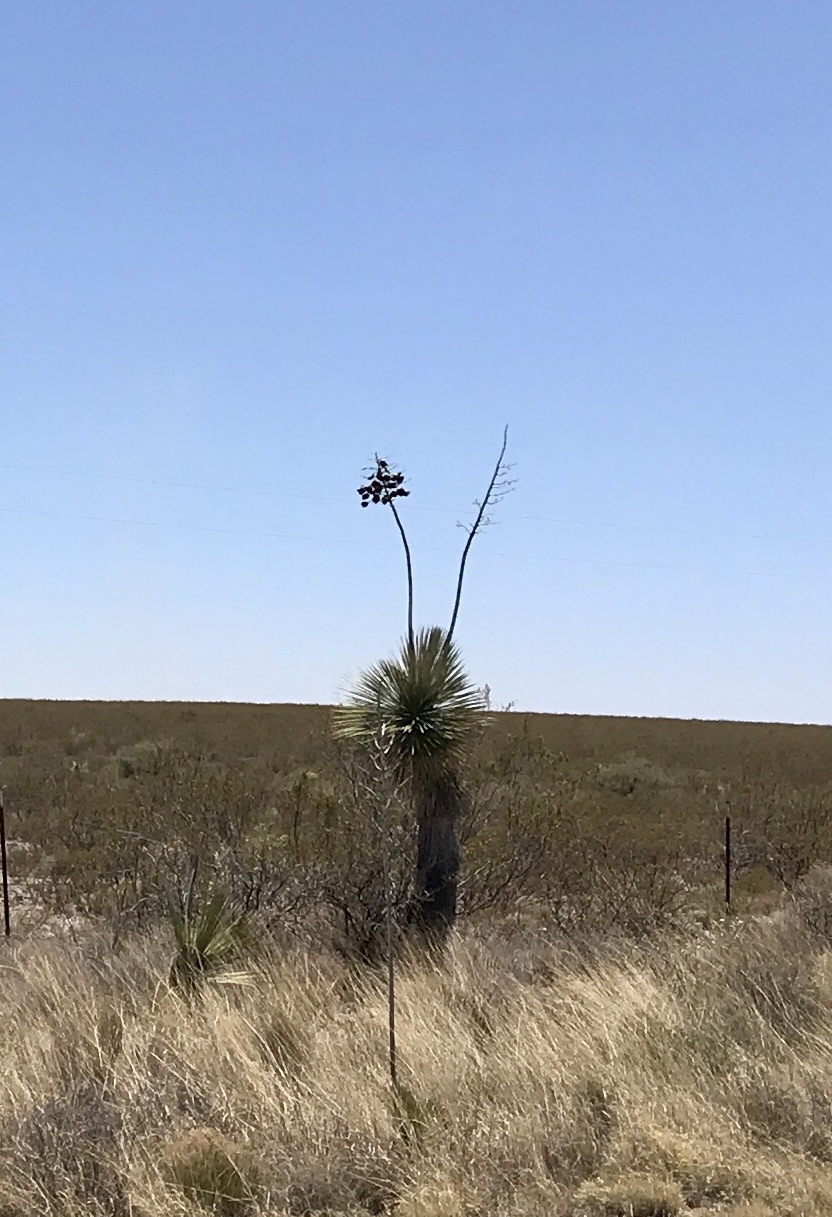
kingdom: Plantae
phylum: Tracheophyta
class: Liliopsida
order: Asparagales
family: Asparagaceae
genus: Yucca
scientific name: Yucca elata
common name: Palmella
